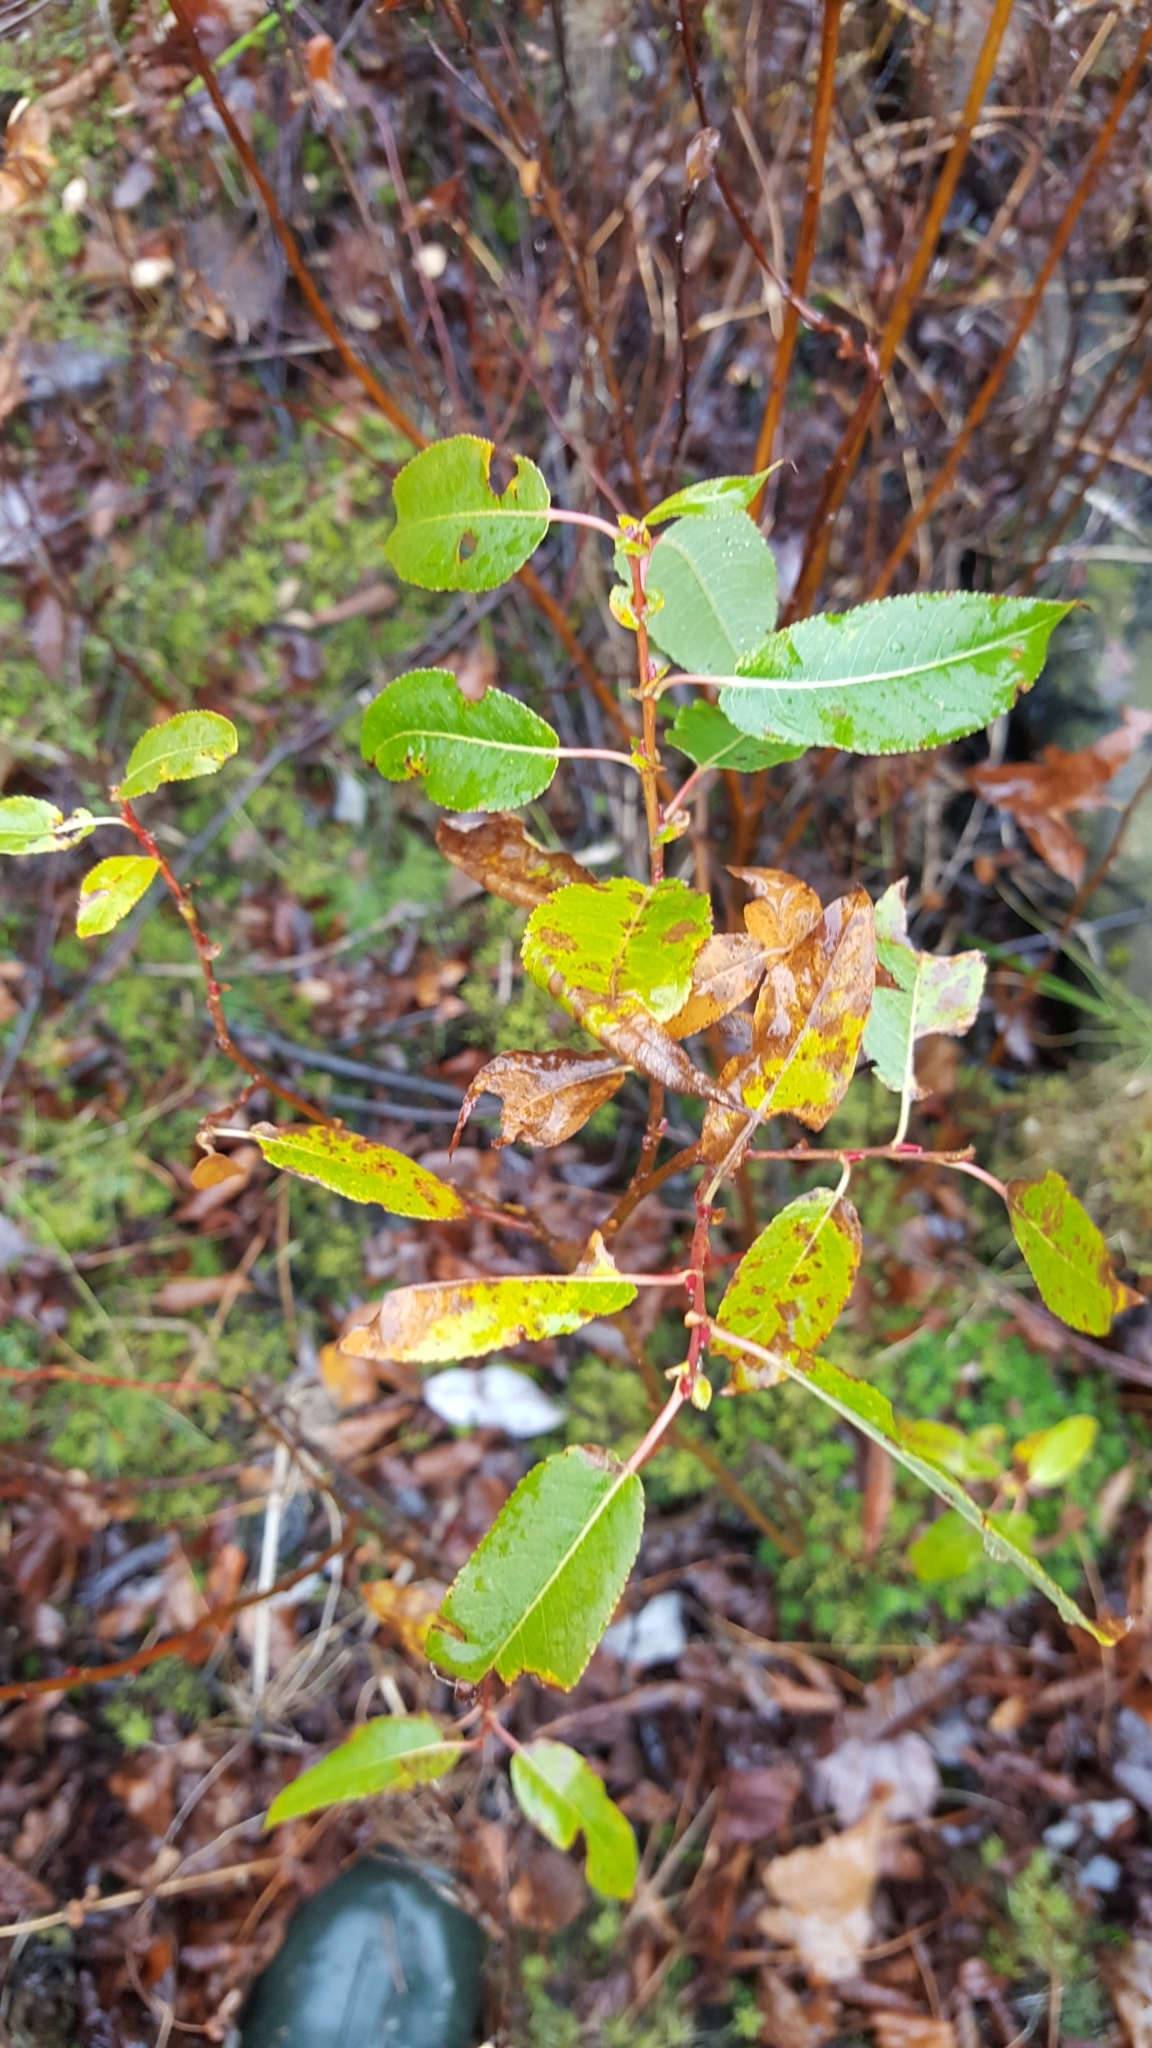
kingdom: Plantae
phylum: Tracheophyta
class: Magnoliopsida
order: Malpighiales
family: Salicaceae
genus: Salix
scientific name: Salix eriocephala
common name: Heart-leaved willow
